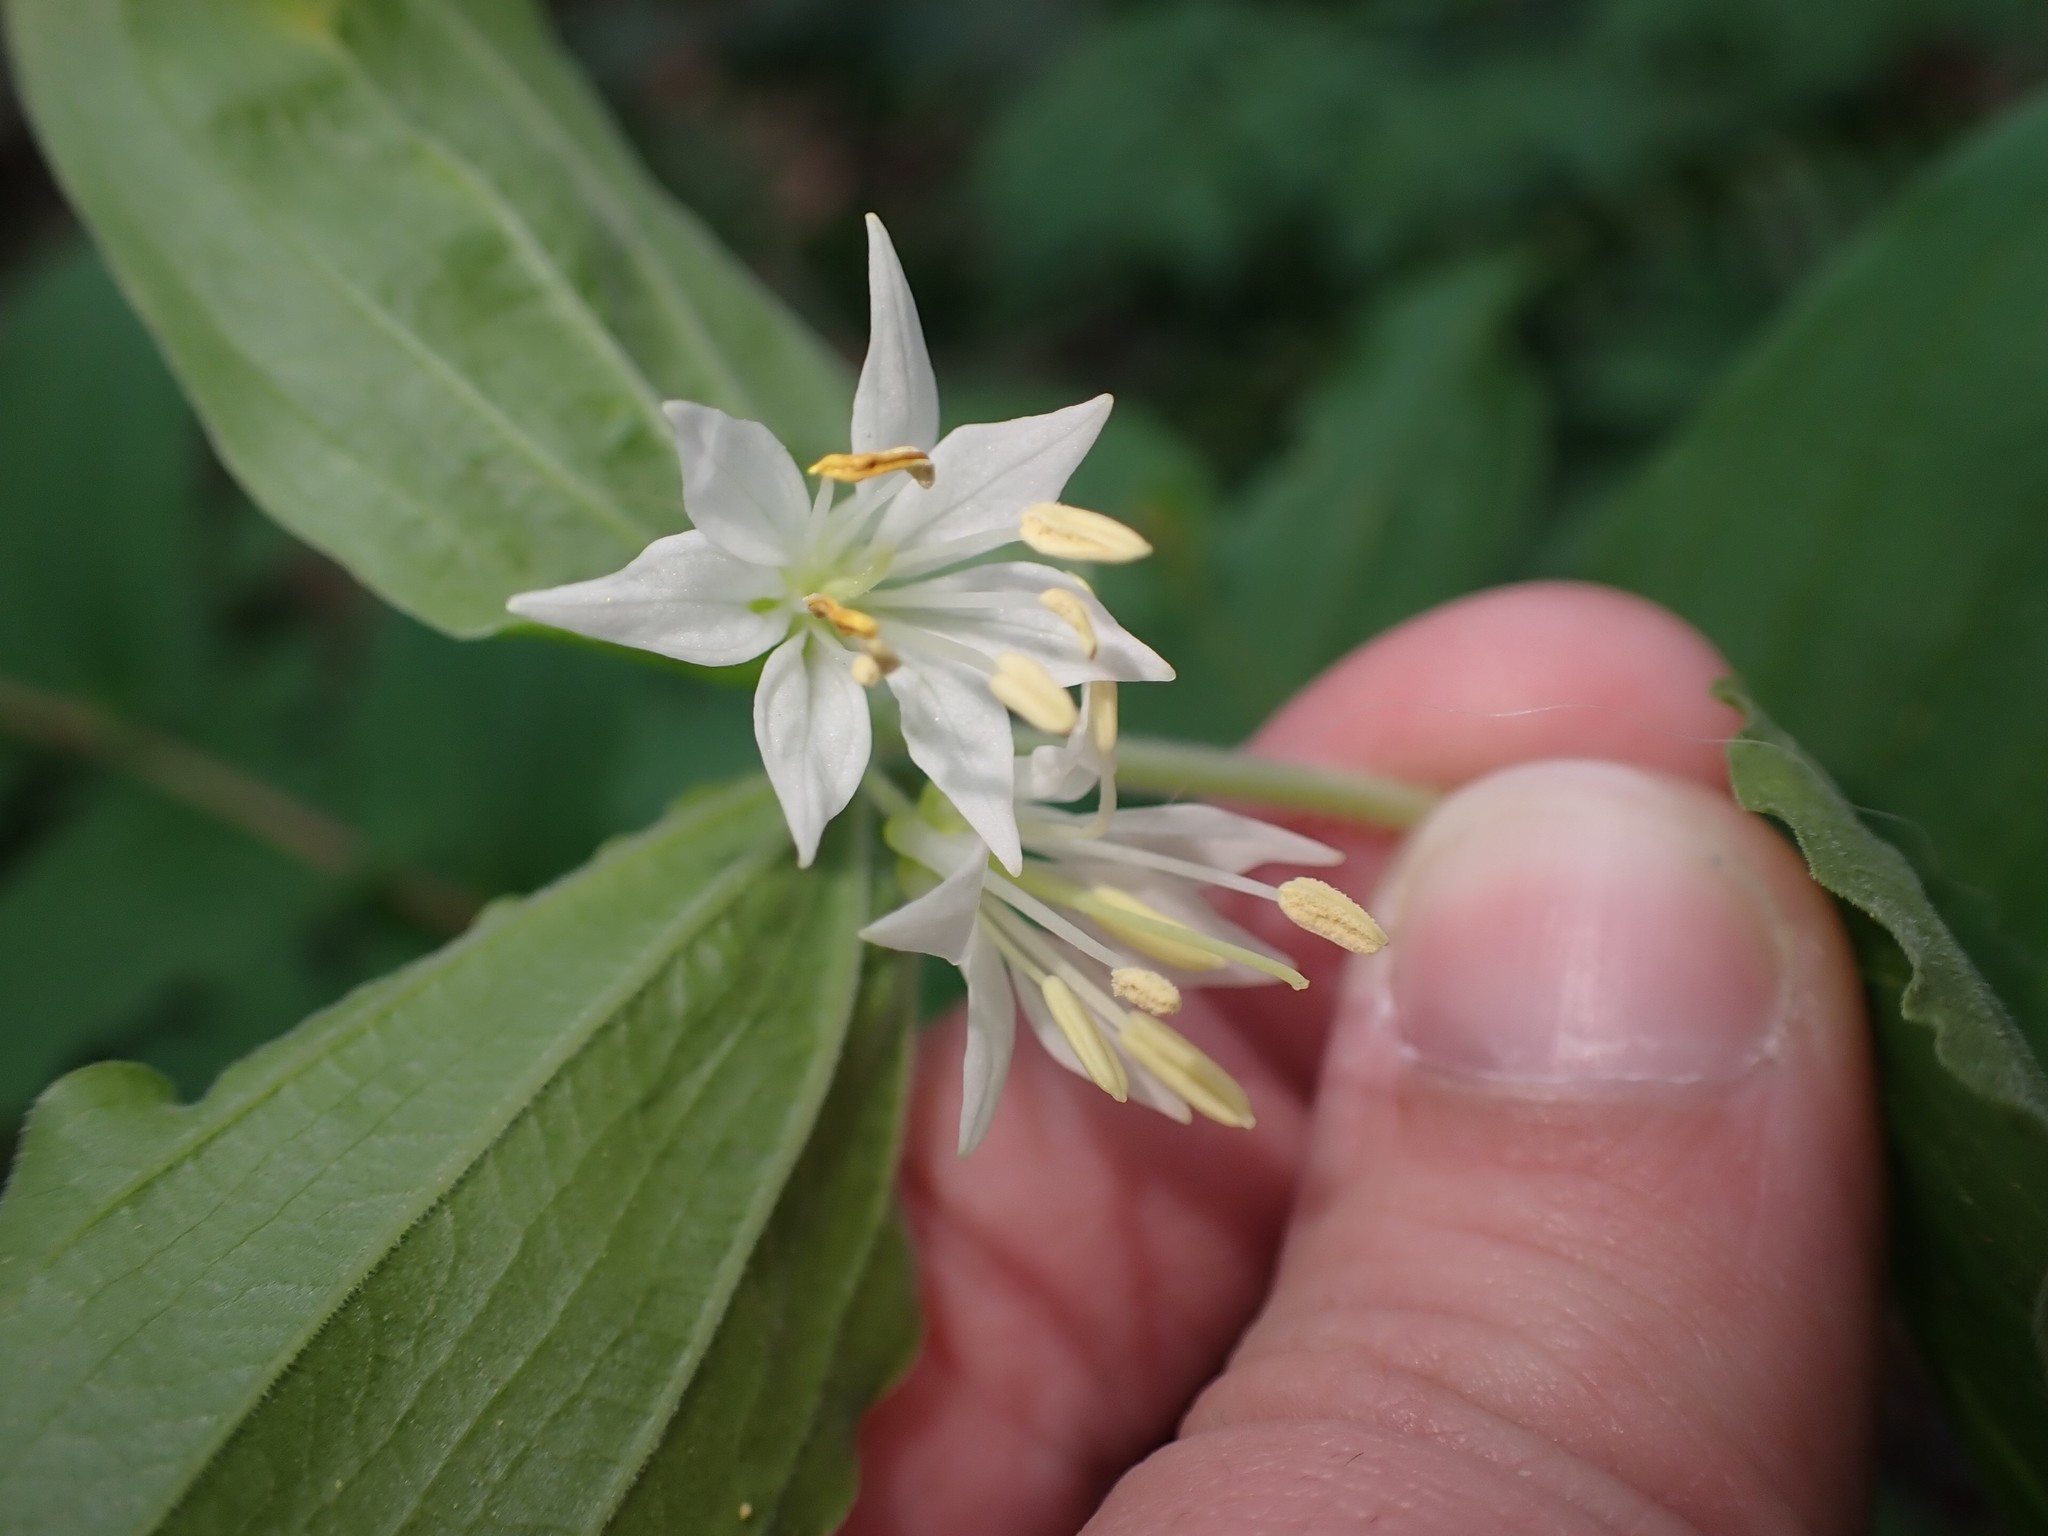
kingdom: Plantae
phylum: Tracheophyta
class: Liliopsida
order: Liliales
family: Liliaceae
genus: Prosartes
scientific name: Prosartes hookeri
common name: Fairy-bells
